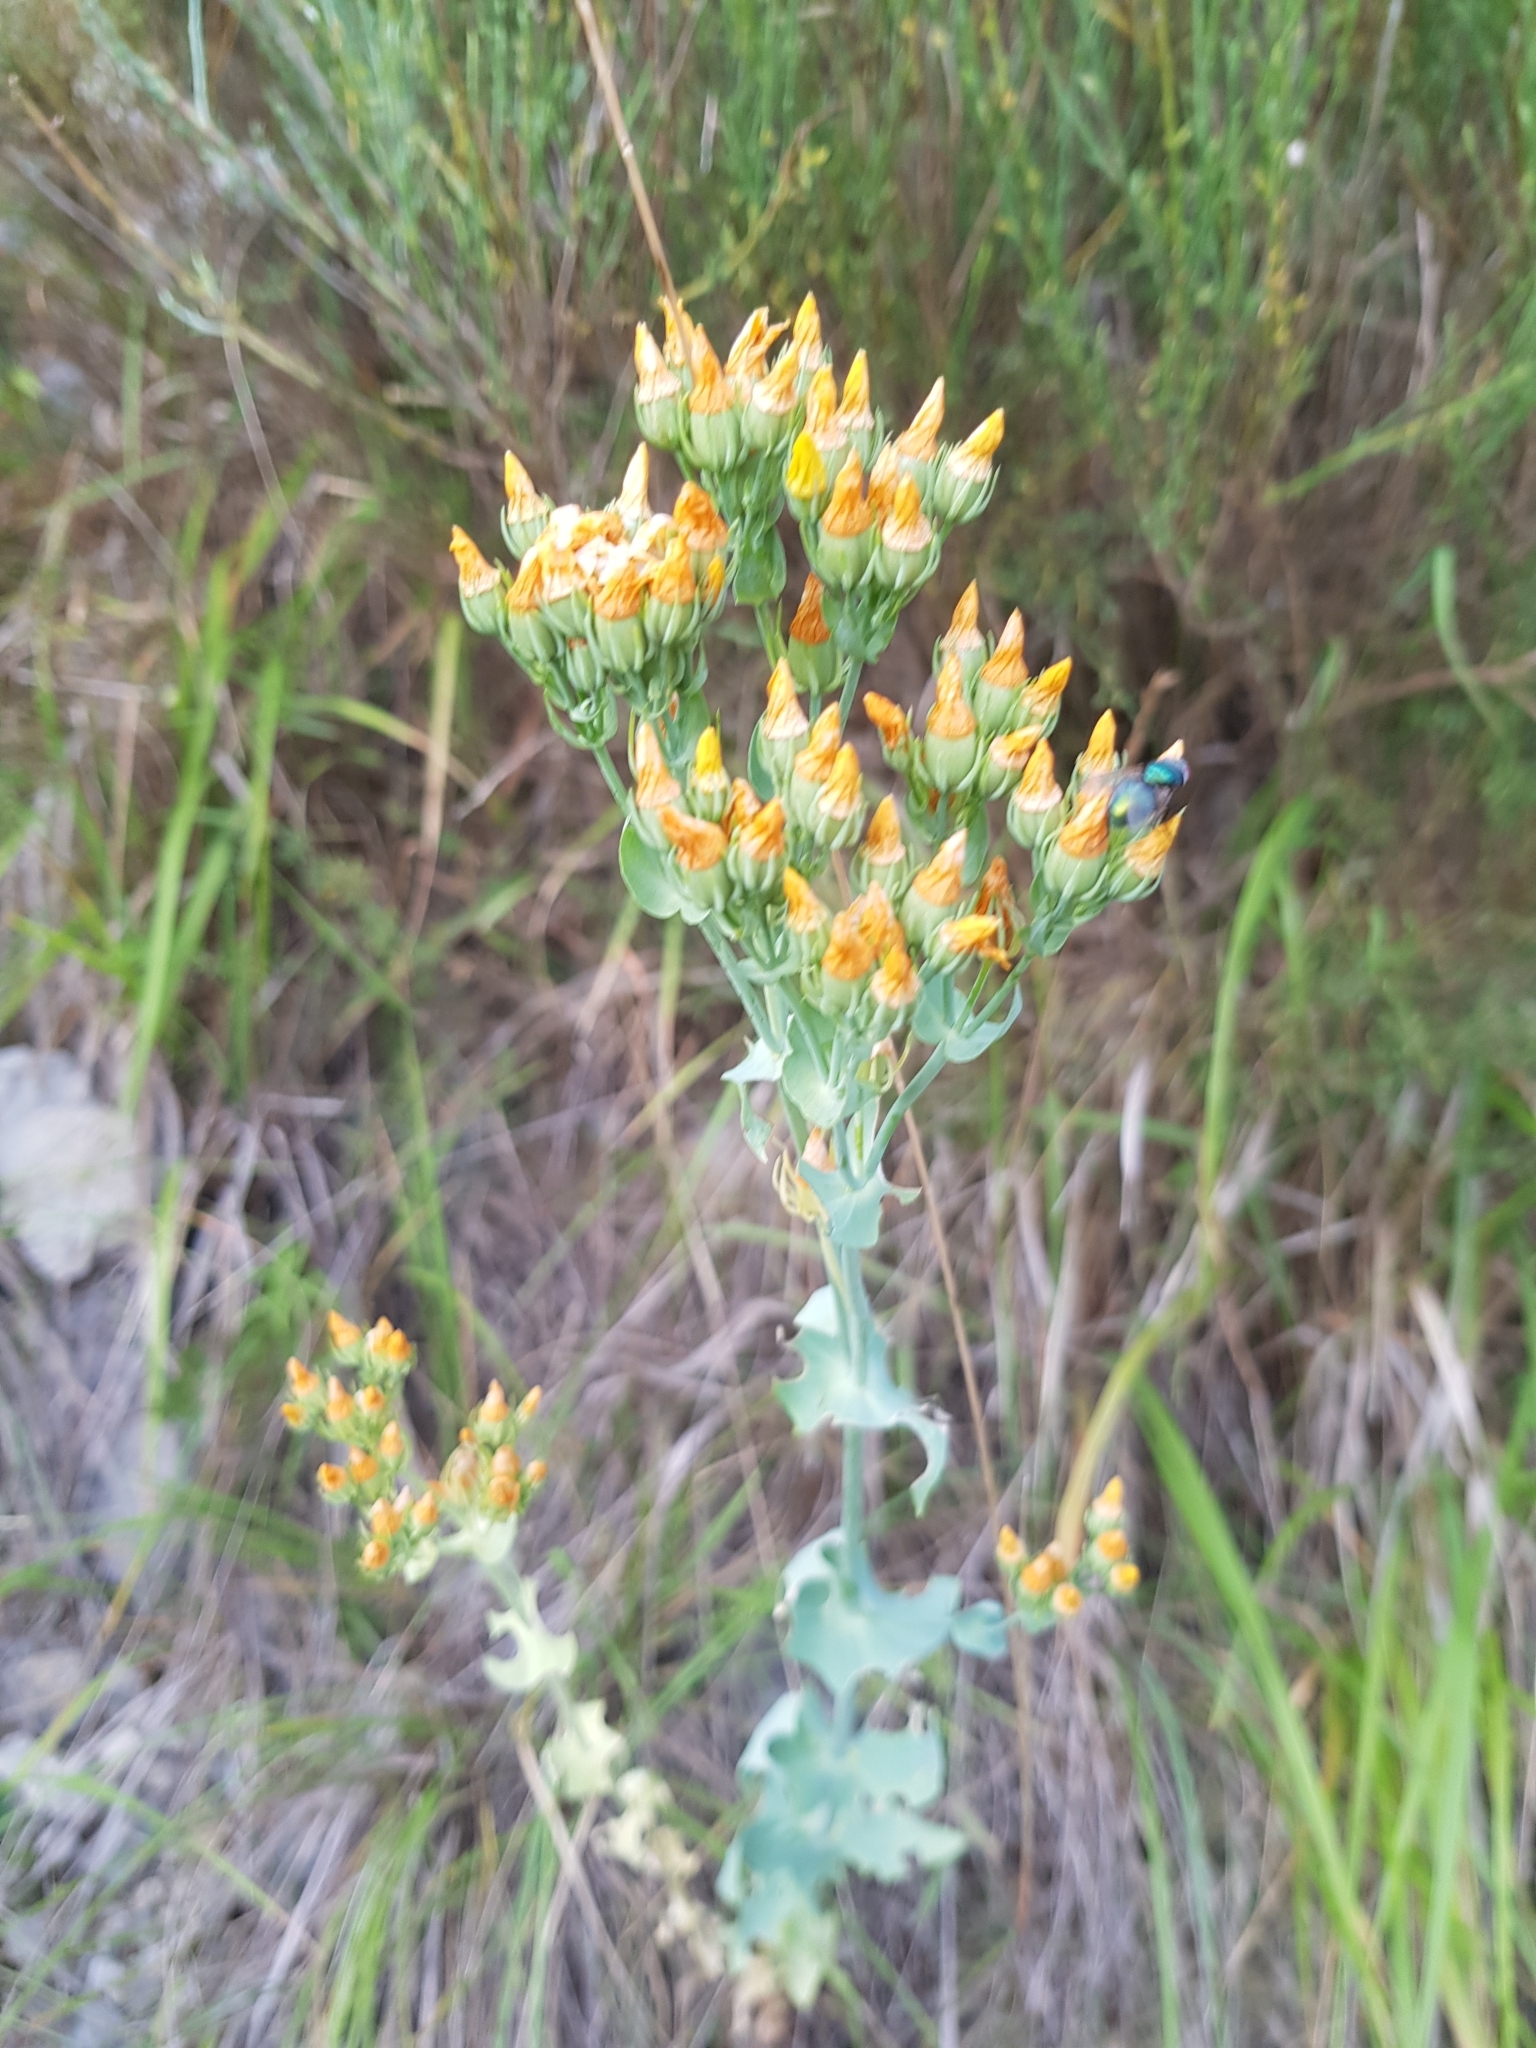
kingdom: Plantae
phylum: Tracheophyta
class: Magnoliopsida
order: Gentianales
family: Gentianaceae
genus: Blackstonia
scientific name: Blackstonia perfoliata
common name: Yellow-wort
